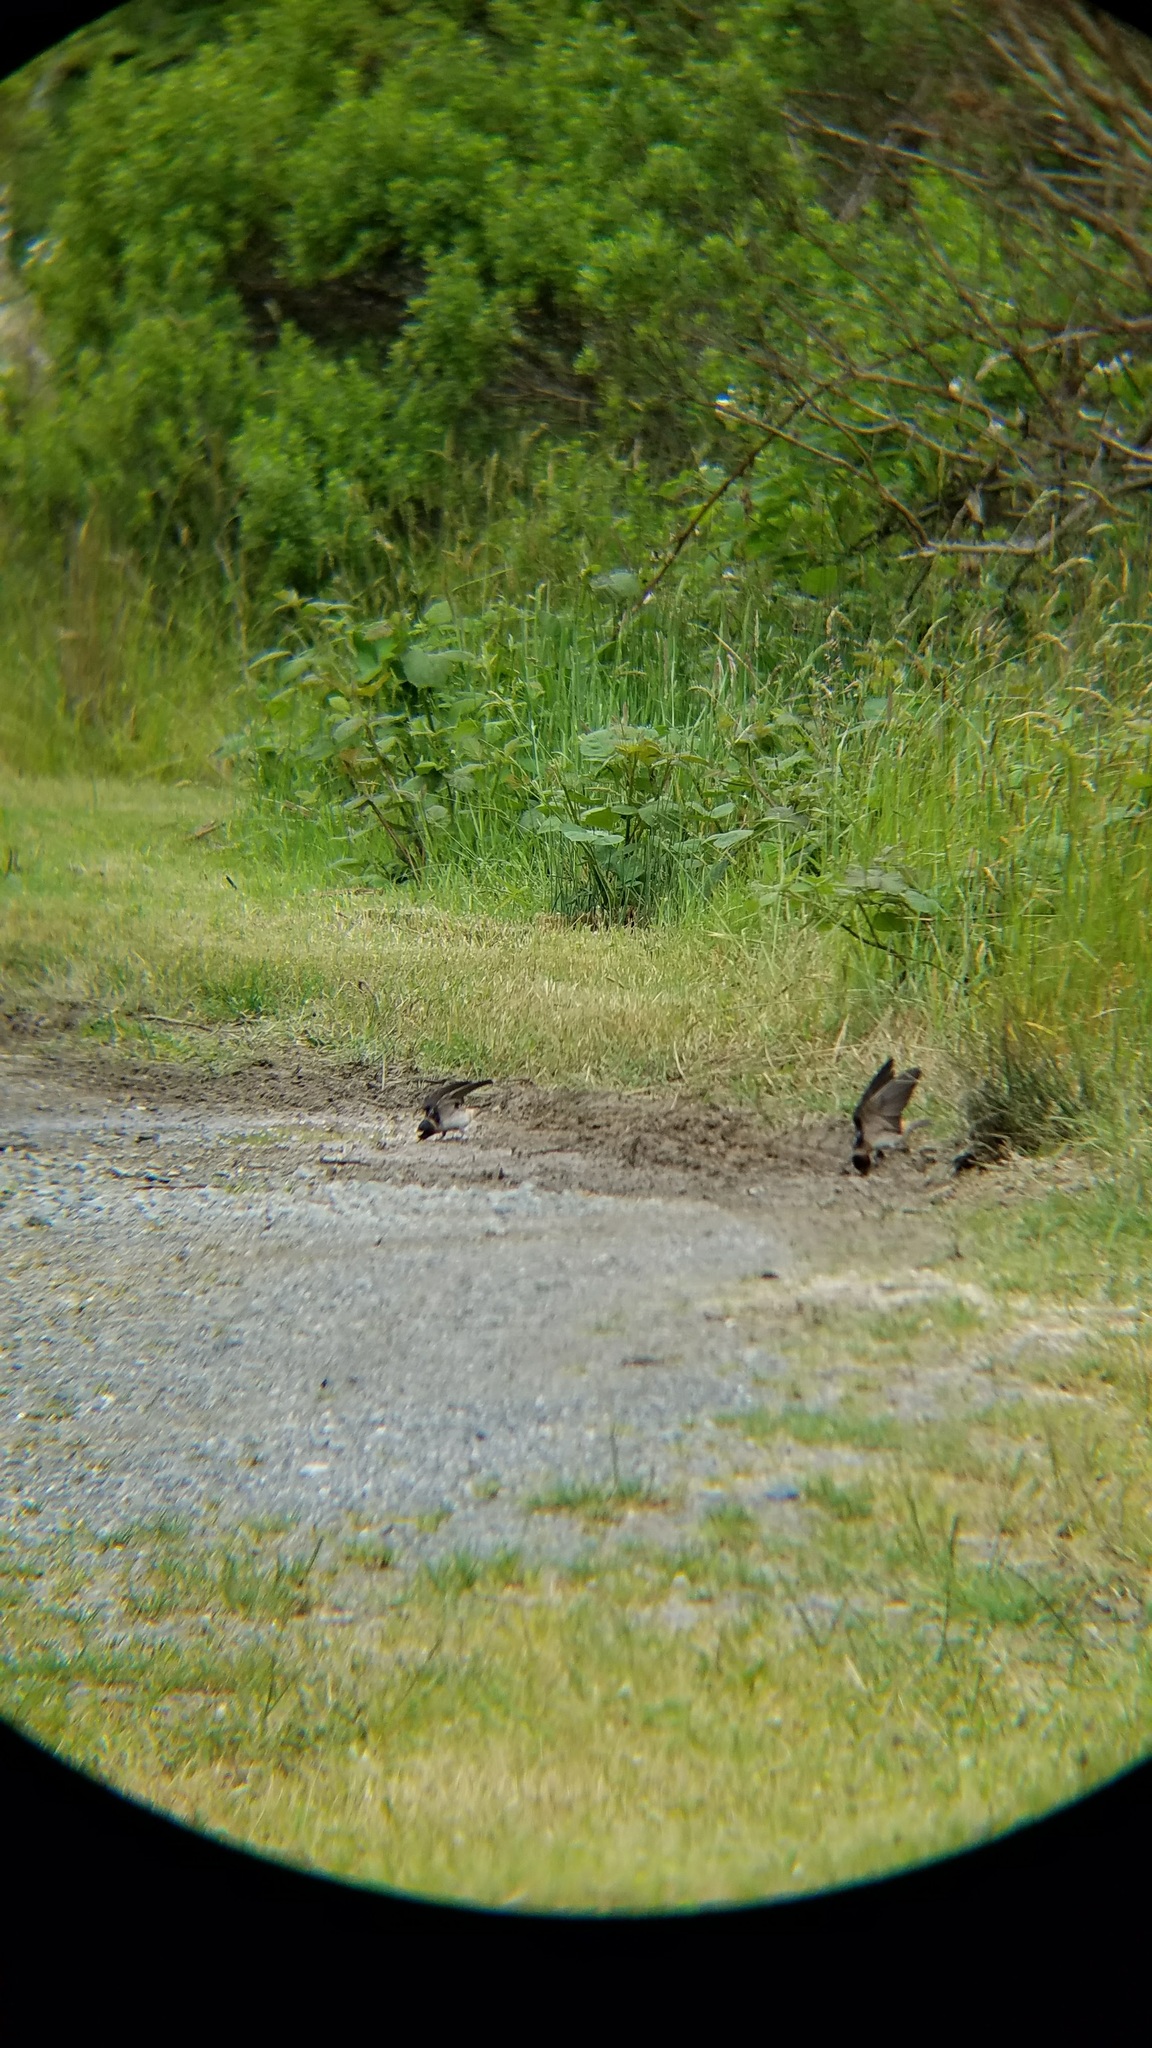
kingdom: Animalia
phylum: Chordata
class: Aves
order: Passeriformes
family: Hirundinidae
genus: Petrochelidon
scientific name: Petrochelidon pyrrhonota
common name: American cliff swallow
